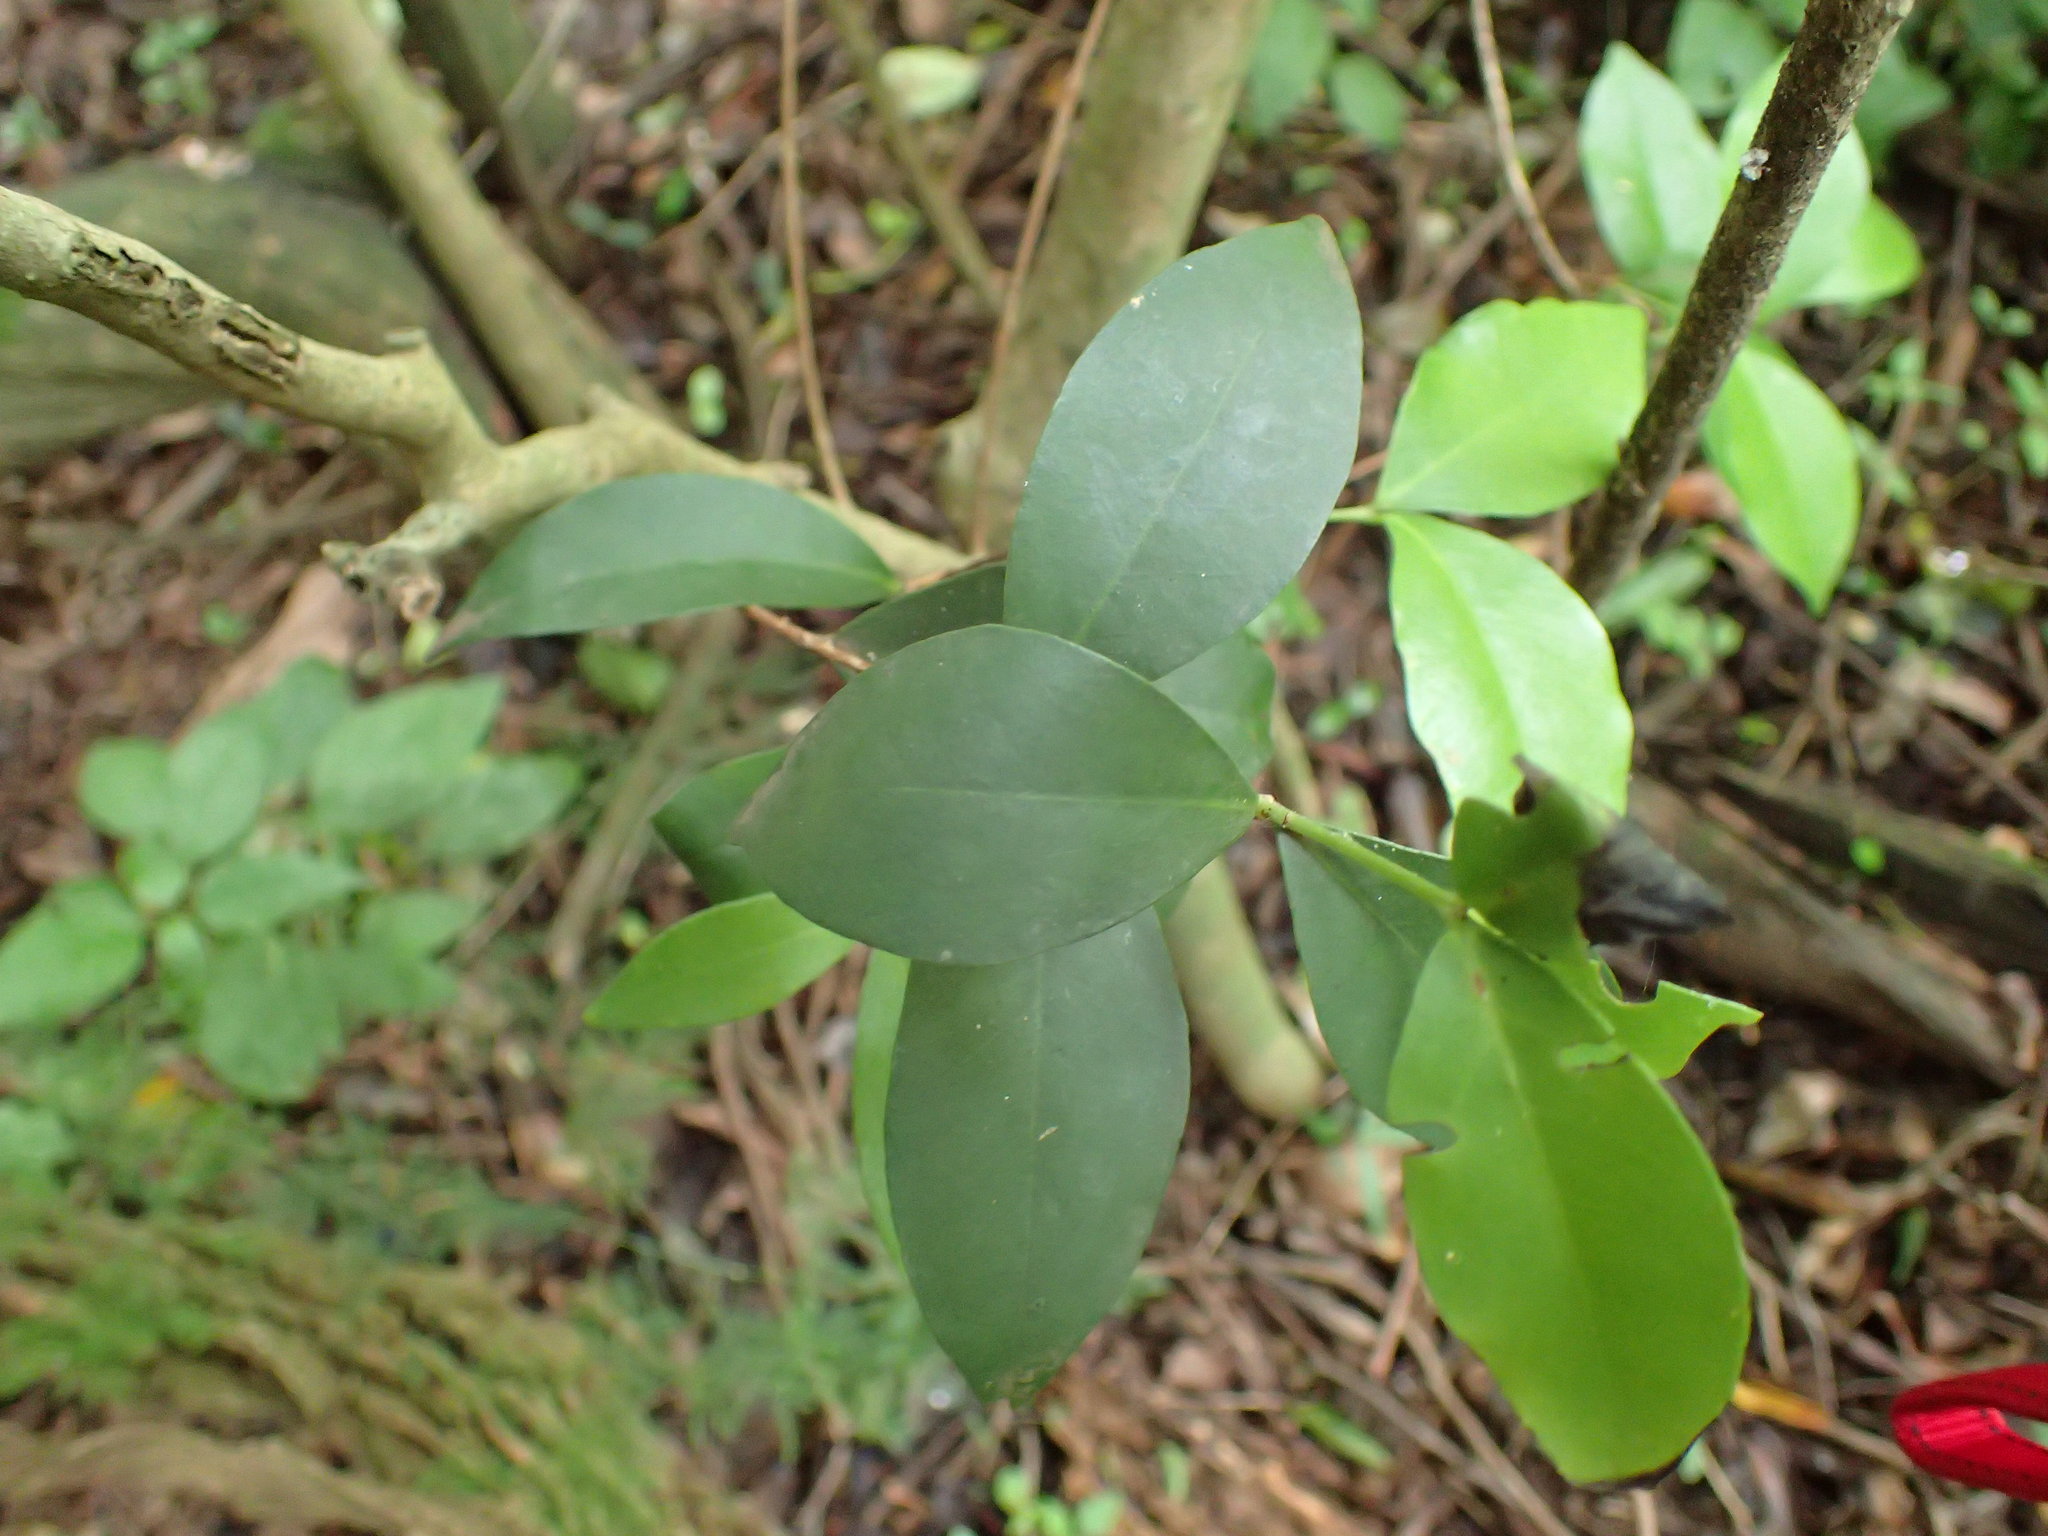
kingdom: Plantae
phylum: Tracheophyta
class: Magnoliopsida
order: Myrtales
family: Myrtaceae
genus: Eugenia
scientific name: Eugenia natalitia
